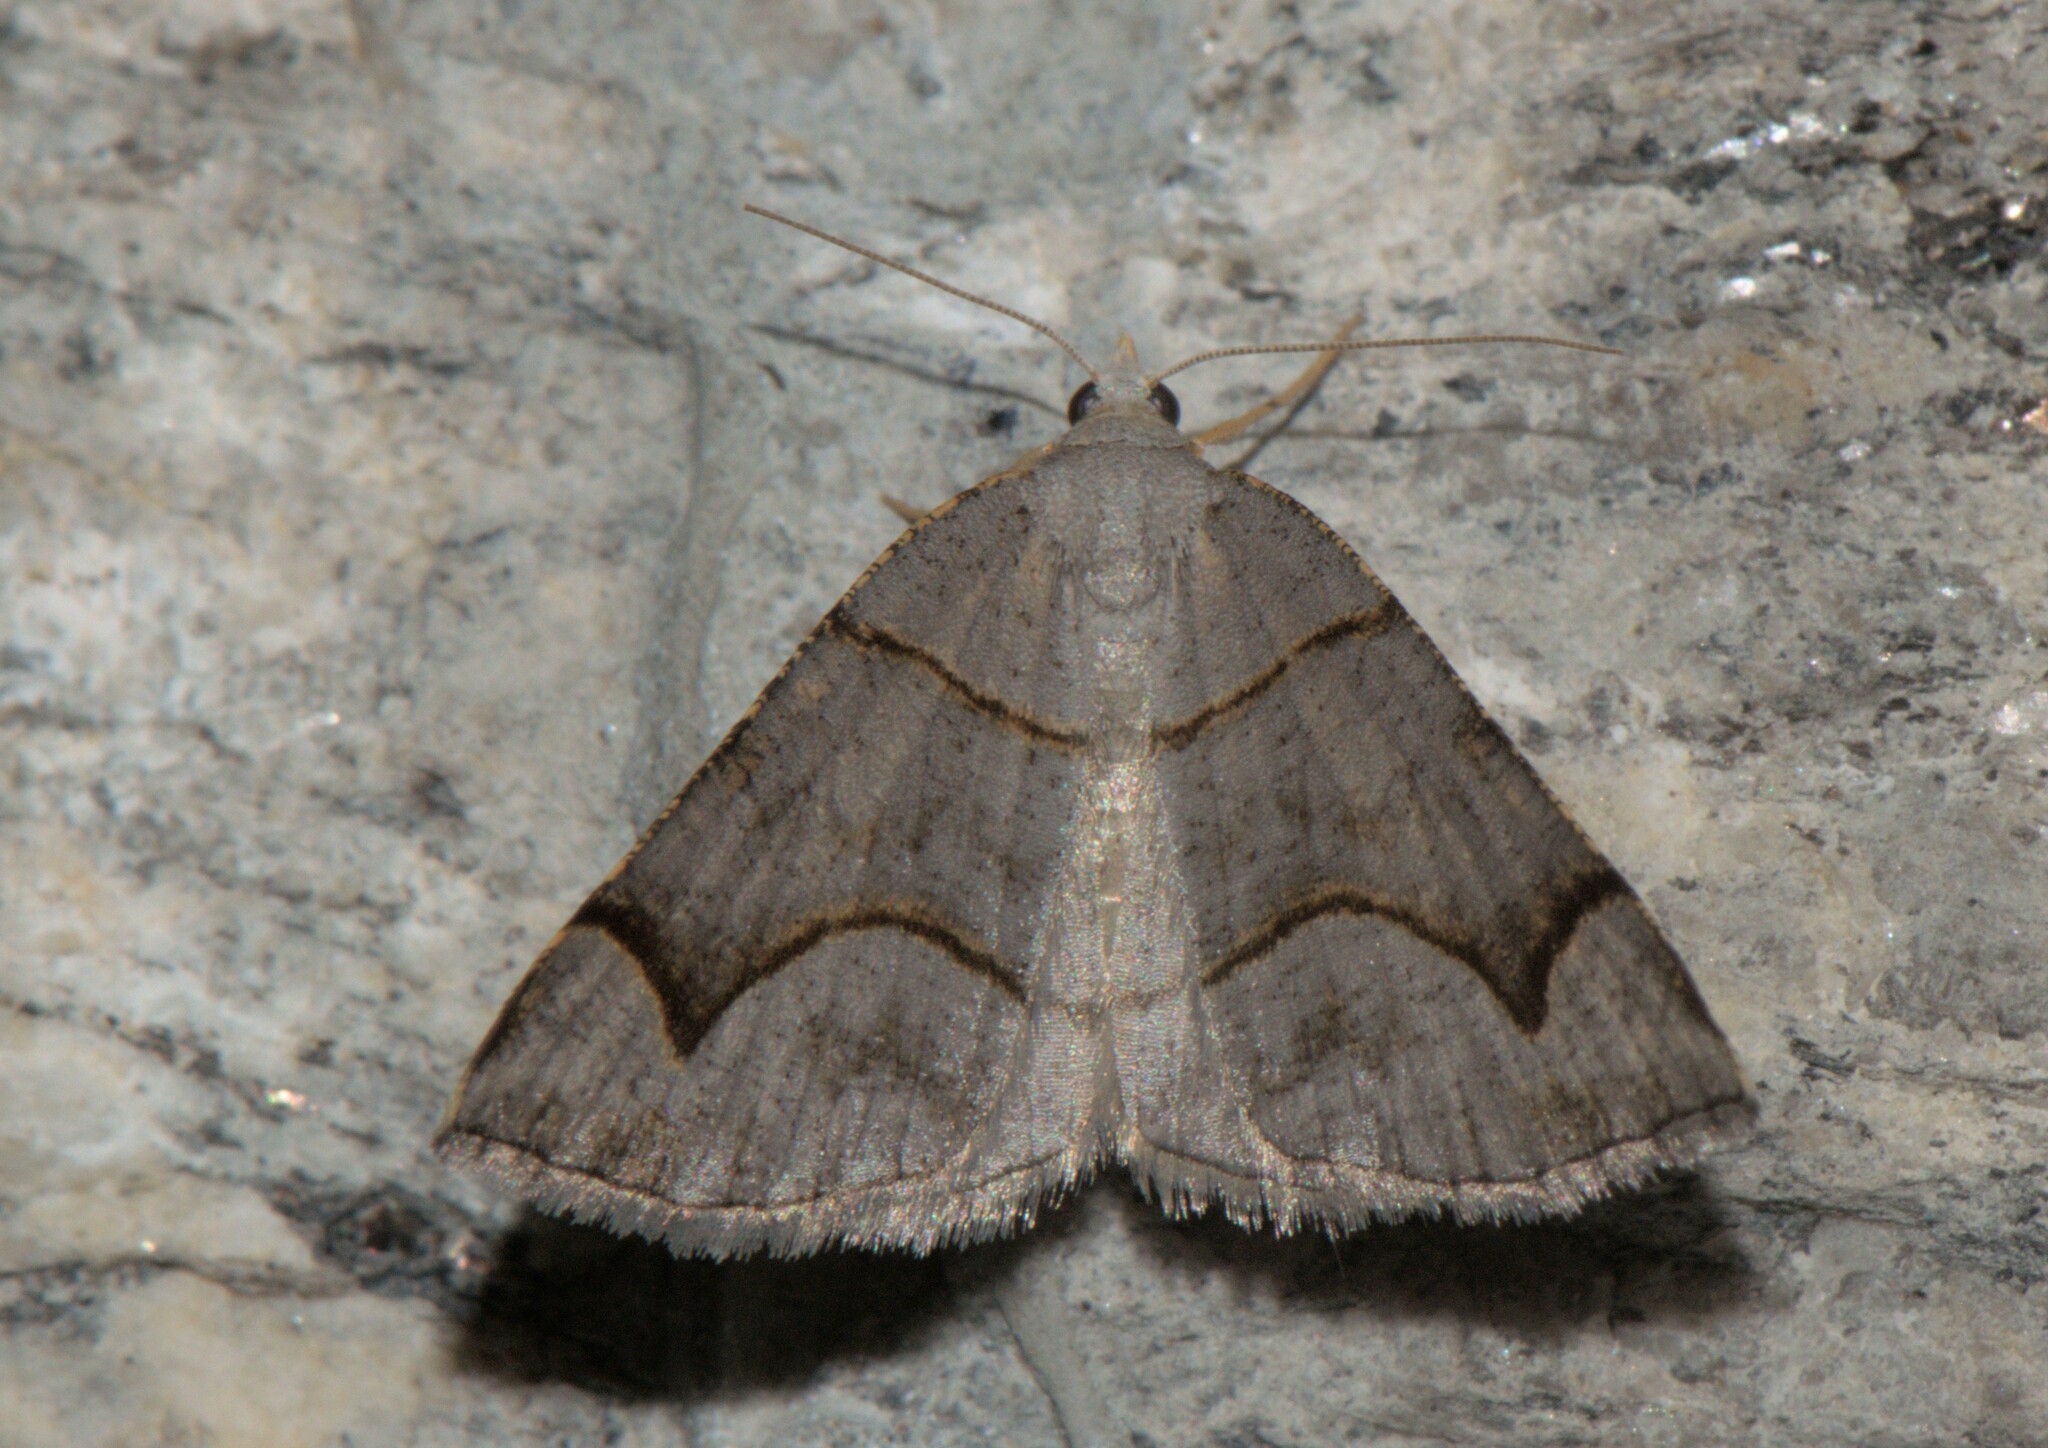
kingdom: Animalia
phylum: Arthropoda
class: Insecta
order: Lepidoptera
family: Geometridae
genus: Anonychia
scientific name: Anonychia grisea
